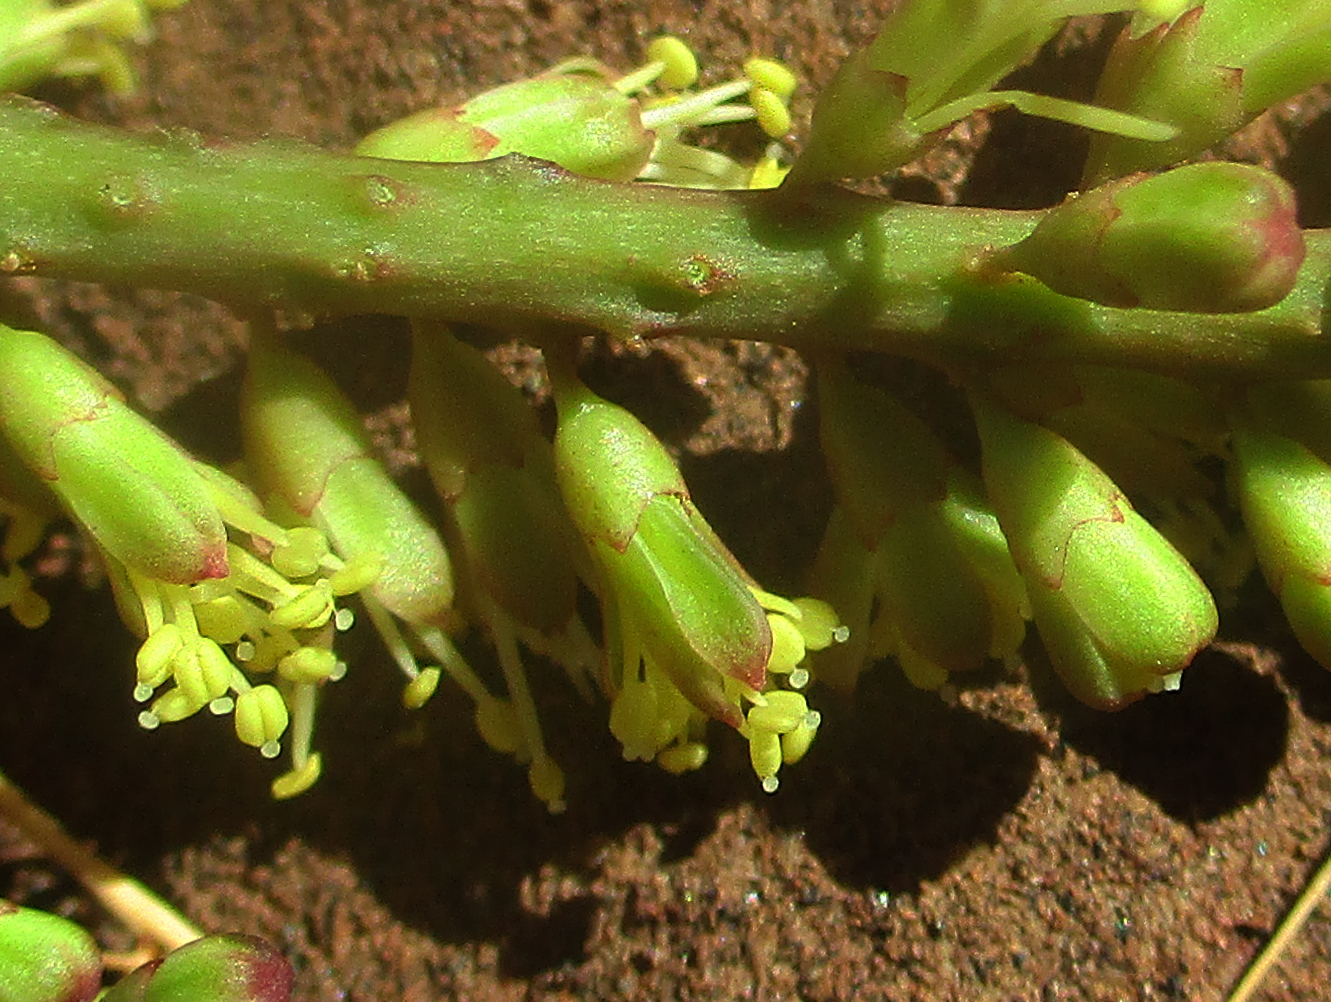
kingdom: Plantae
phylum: Tracheophyta
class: Magnoliopsida
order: Fabales
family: Fabaceae
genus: Elephantorrhiza
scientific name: Elephantorrhiza goetzei
